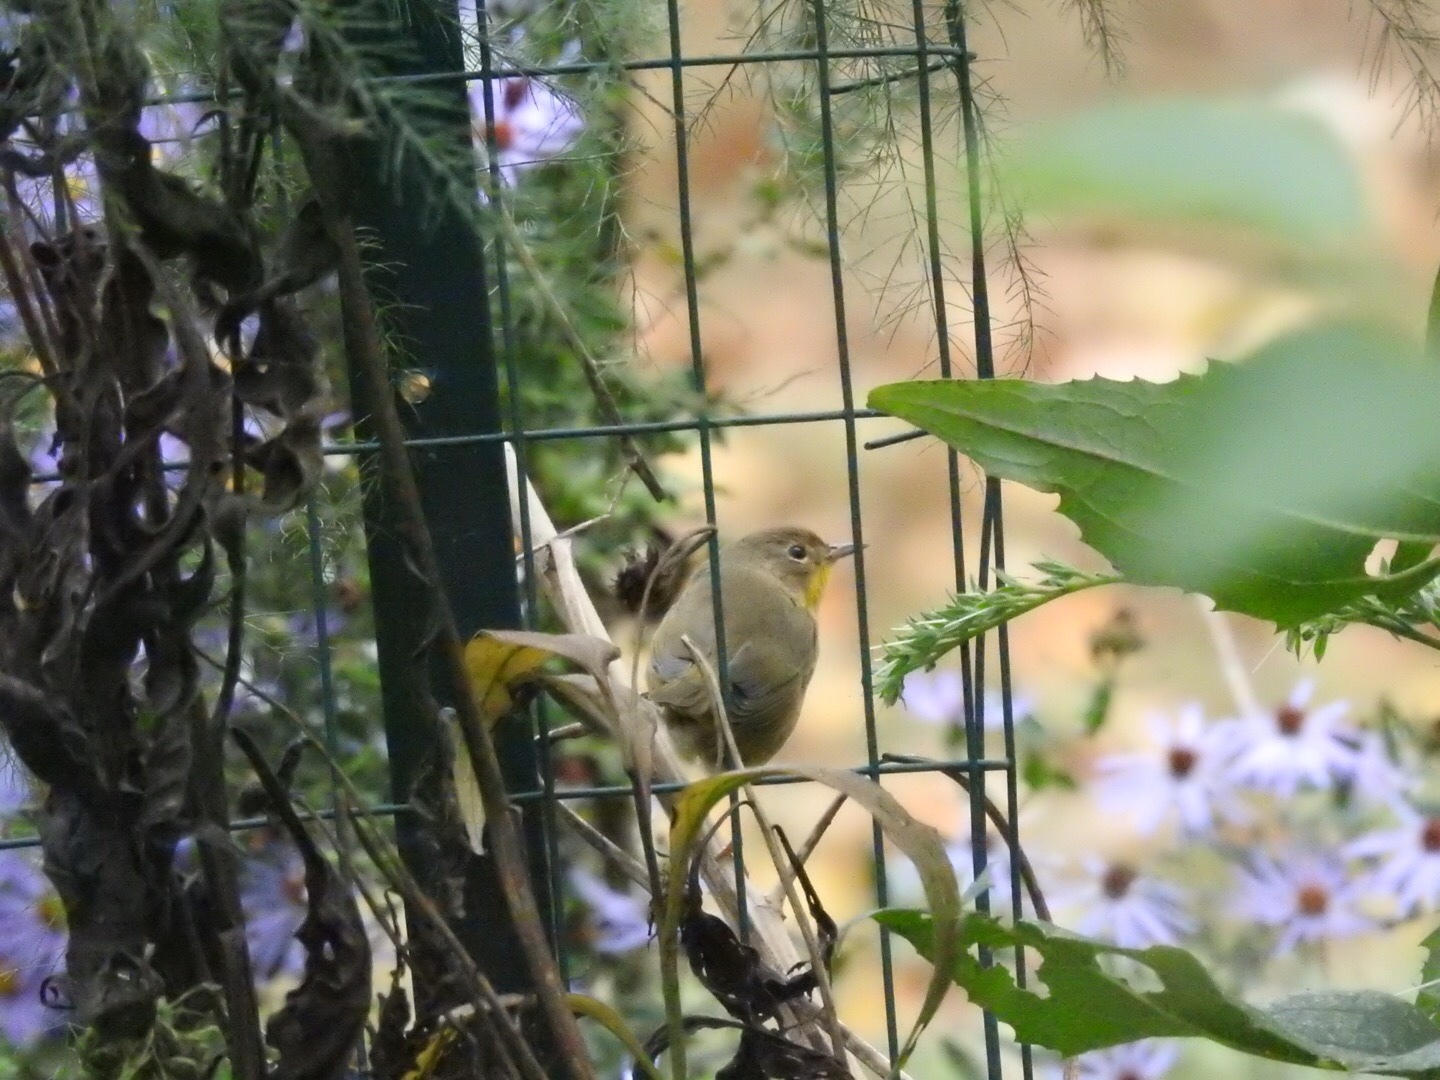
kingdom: Animalia
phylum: Chordata
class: Aves
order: Passeriformes
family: Parulidae
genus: Geothlypis
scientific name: Geothlypis trichas
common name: Common yellowthroat
